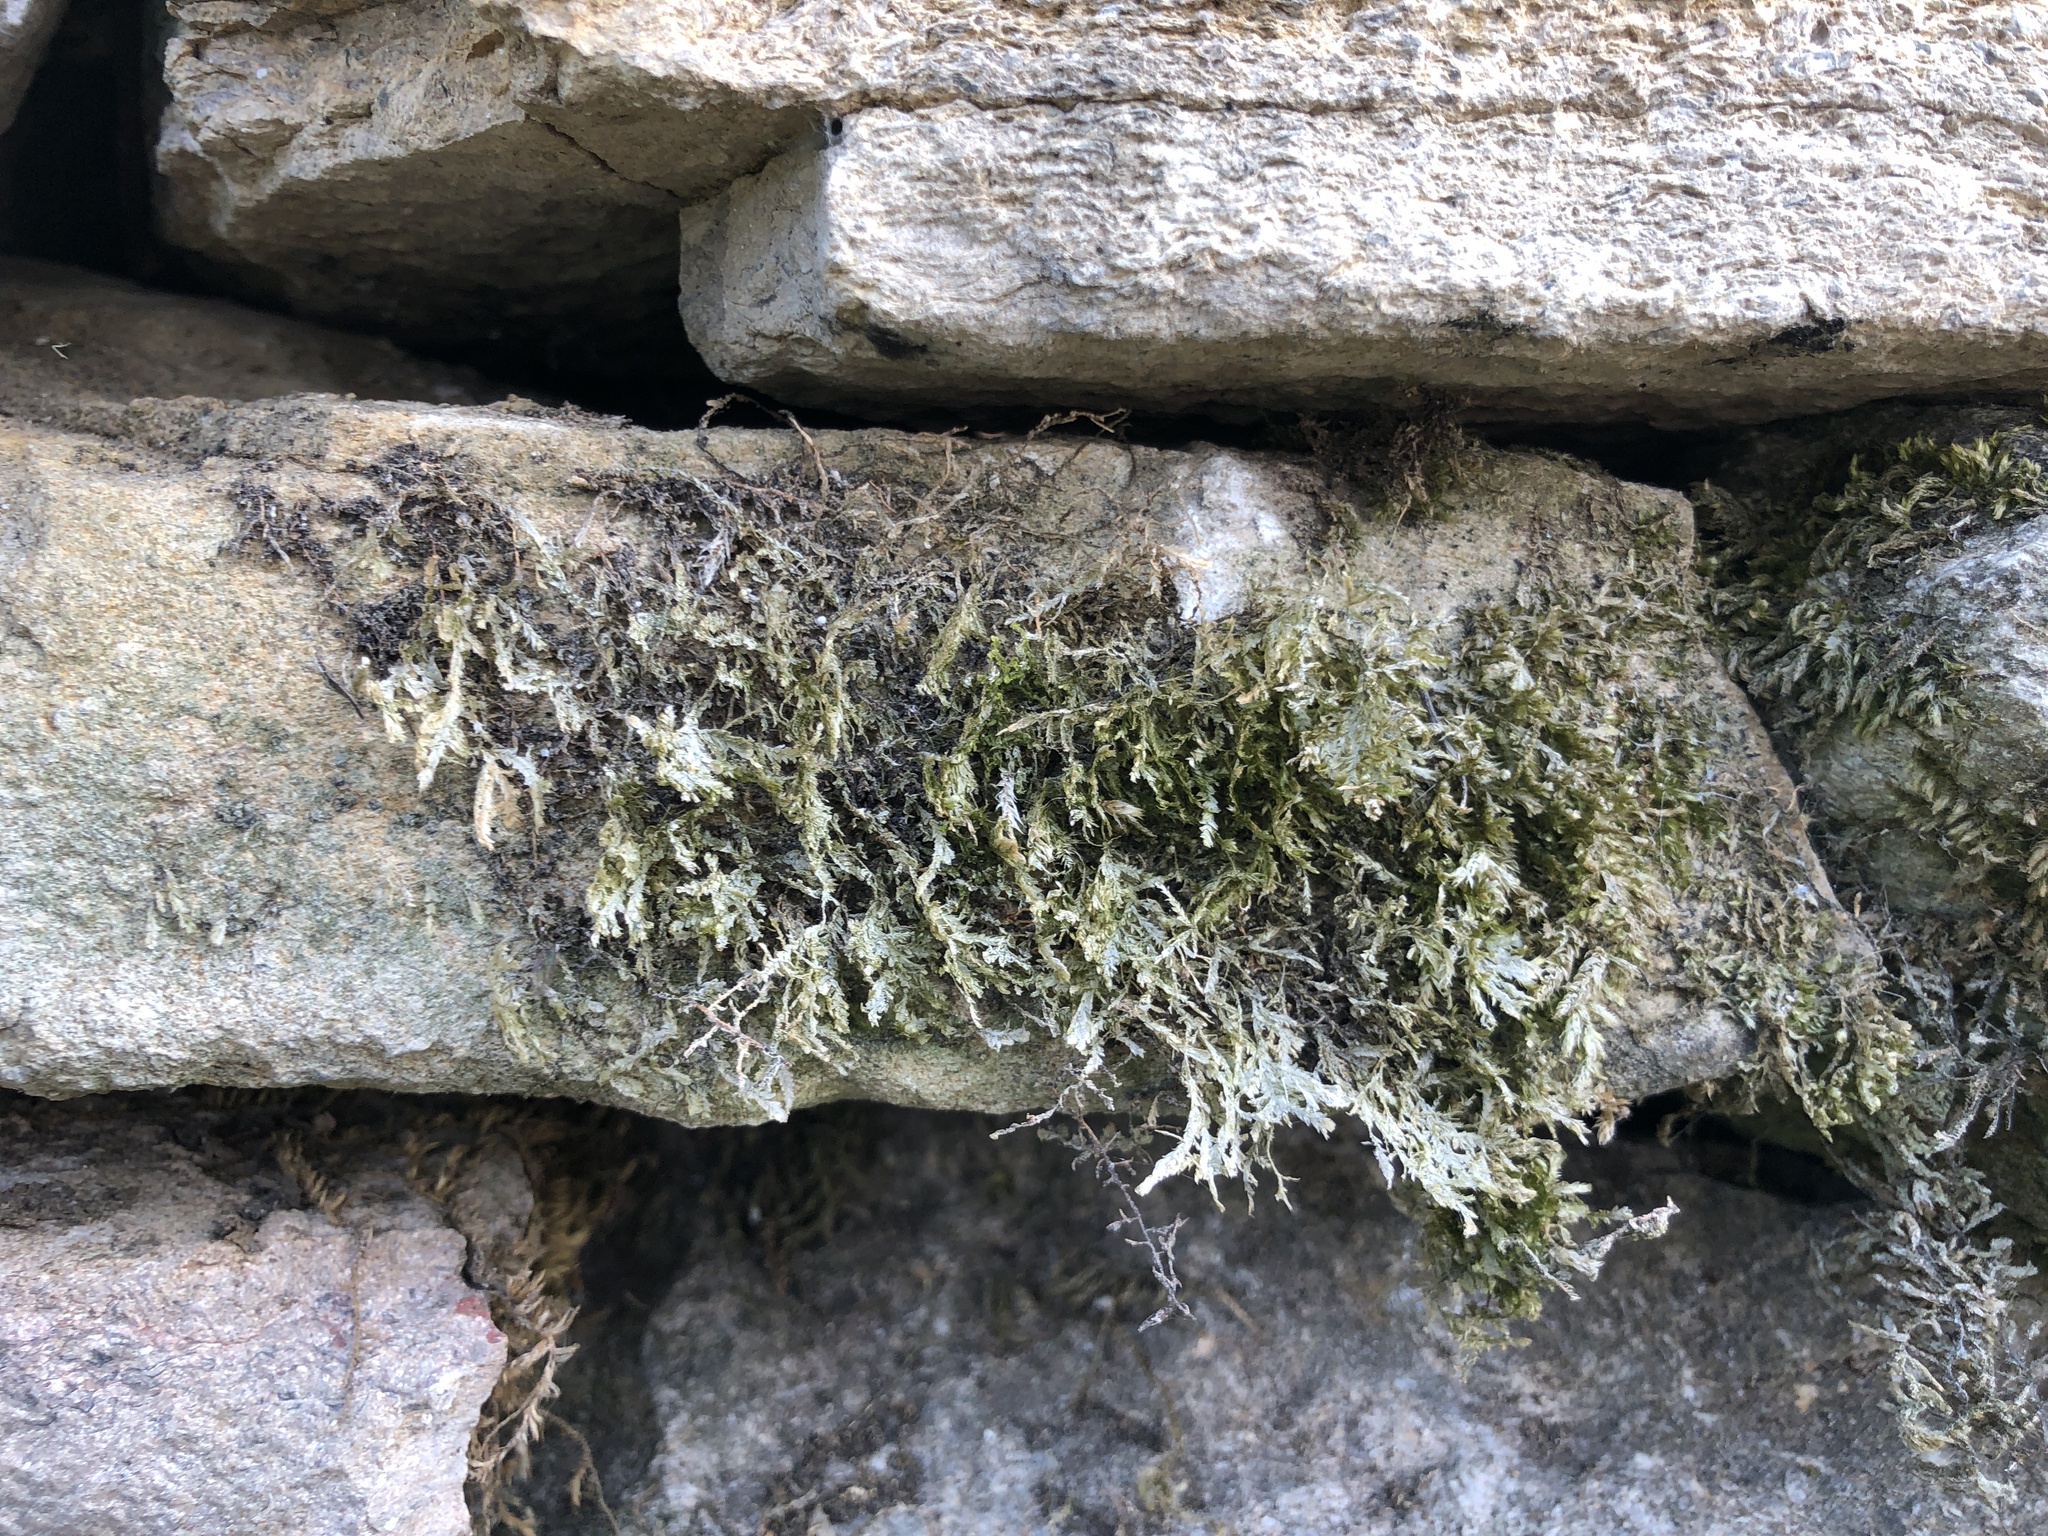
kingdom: Plantae
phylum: Bryophyta
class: Bryopsida
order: Hypnales
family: Neckeraceae
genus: Alleniella
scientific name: Alleniella complanata
